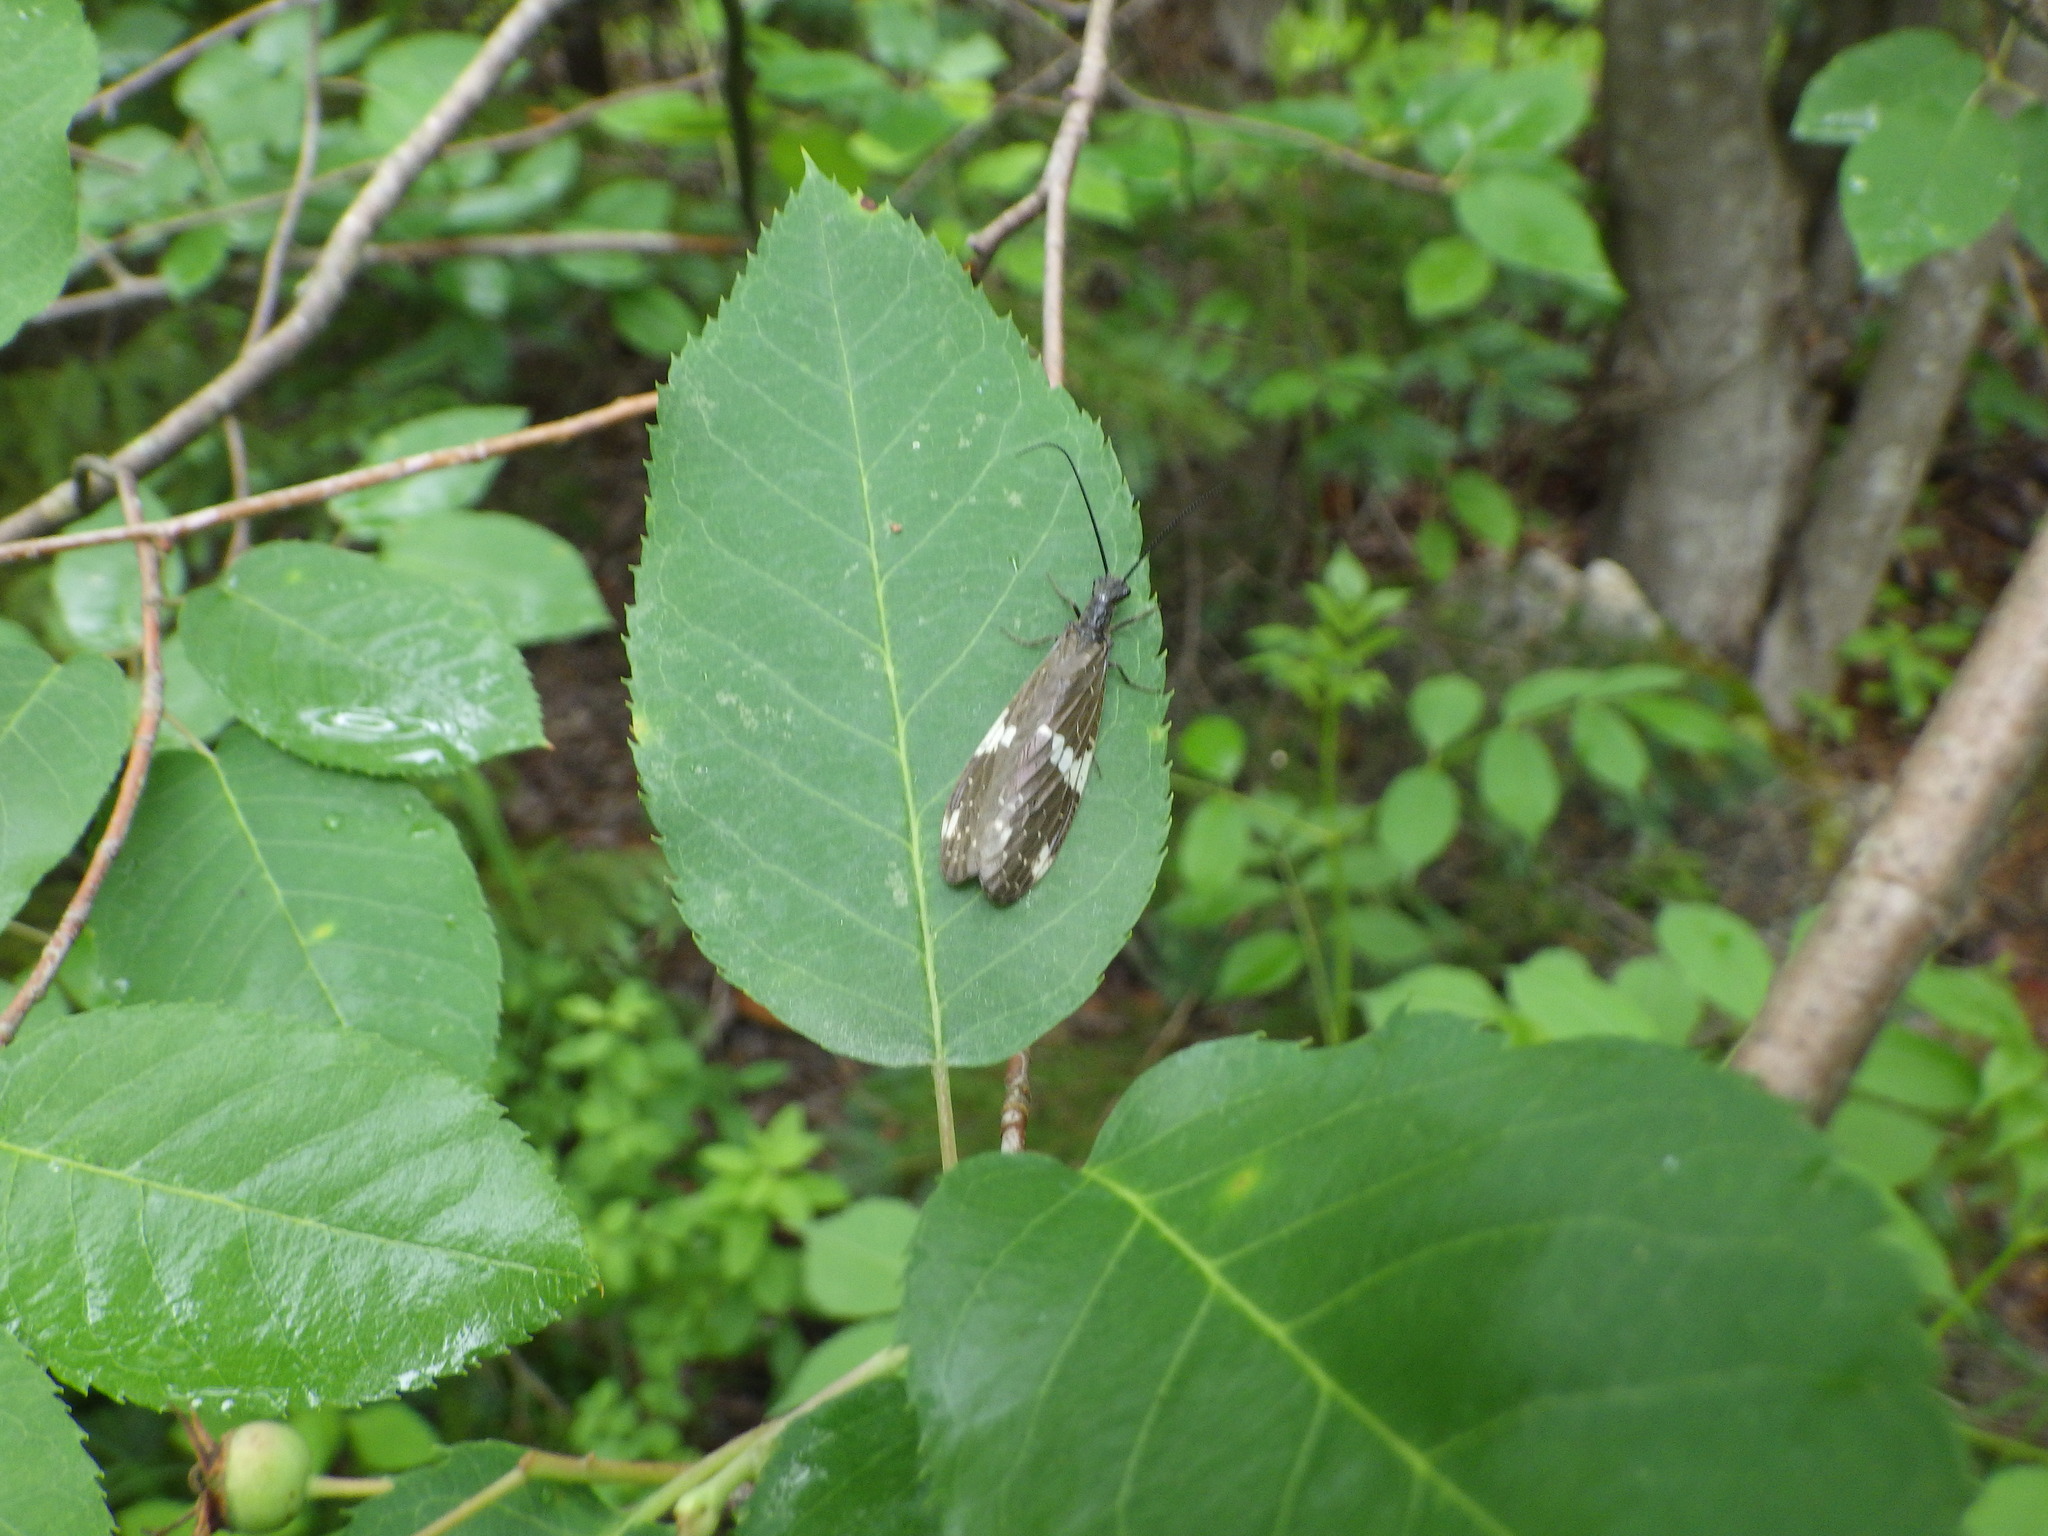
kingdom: Animalia
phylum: Arthropoda
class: Insecta
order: Megaloptera
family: Corydalidae
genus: Nigronia
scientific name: Nigronia serricornis
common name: Serrate dark fishfly
